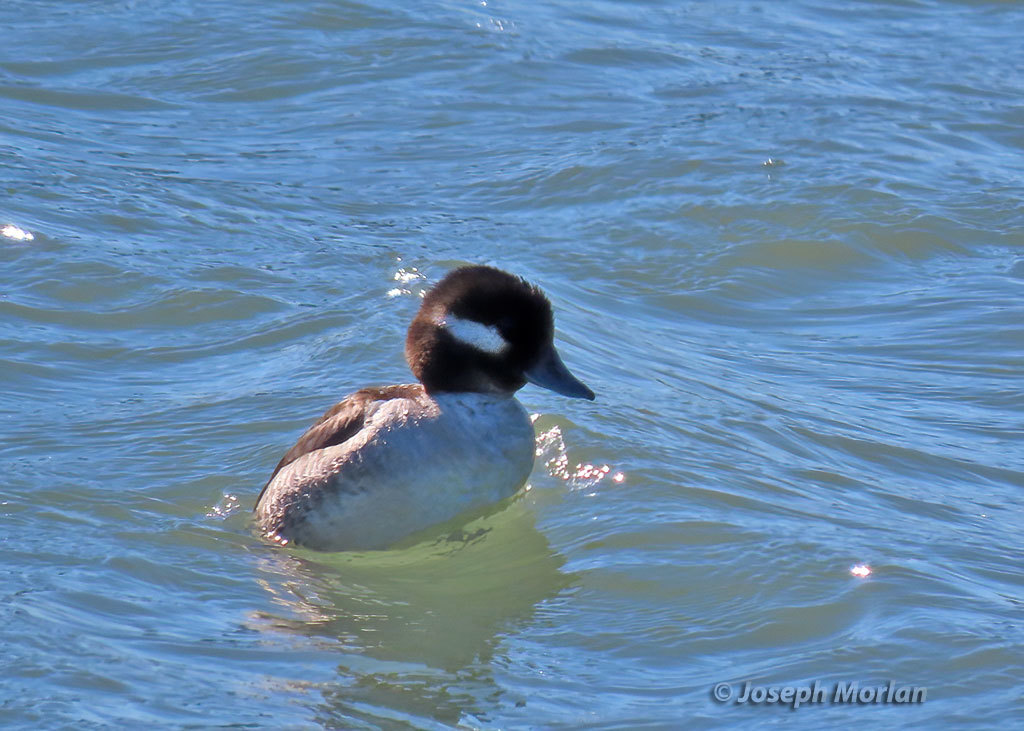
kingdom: Animalia
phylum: Chordata
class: Aves
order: Anseriformes
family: Anatidae
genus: Bucephala
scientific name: Bucephala albeola
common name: Bufflehead
